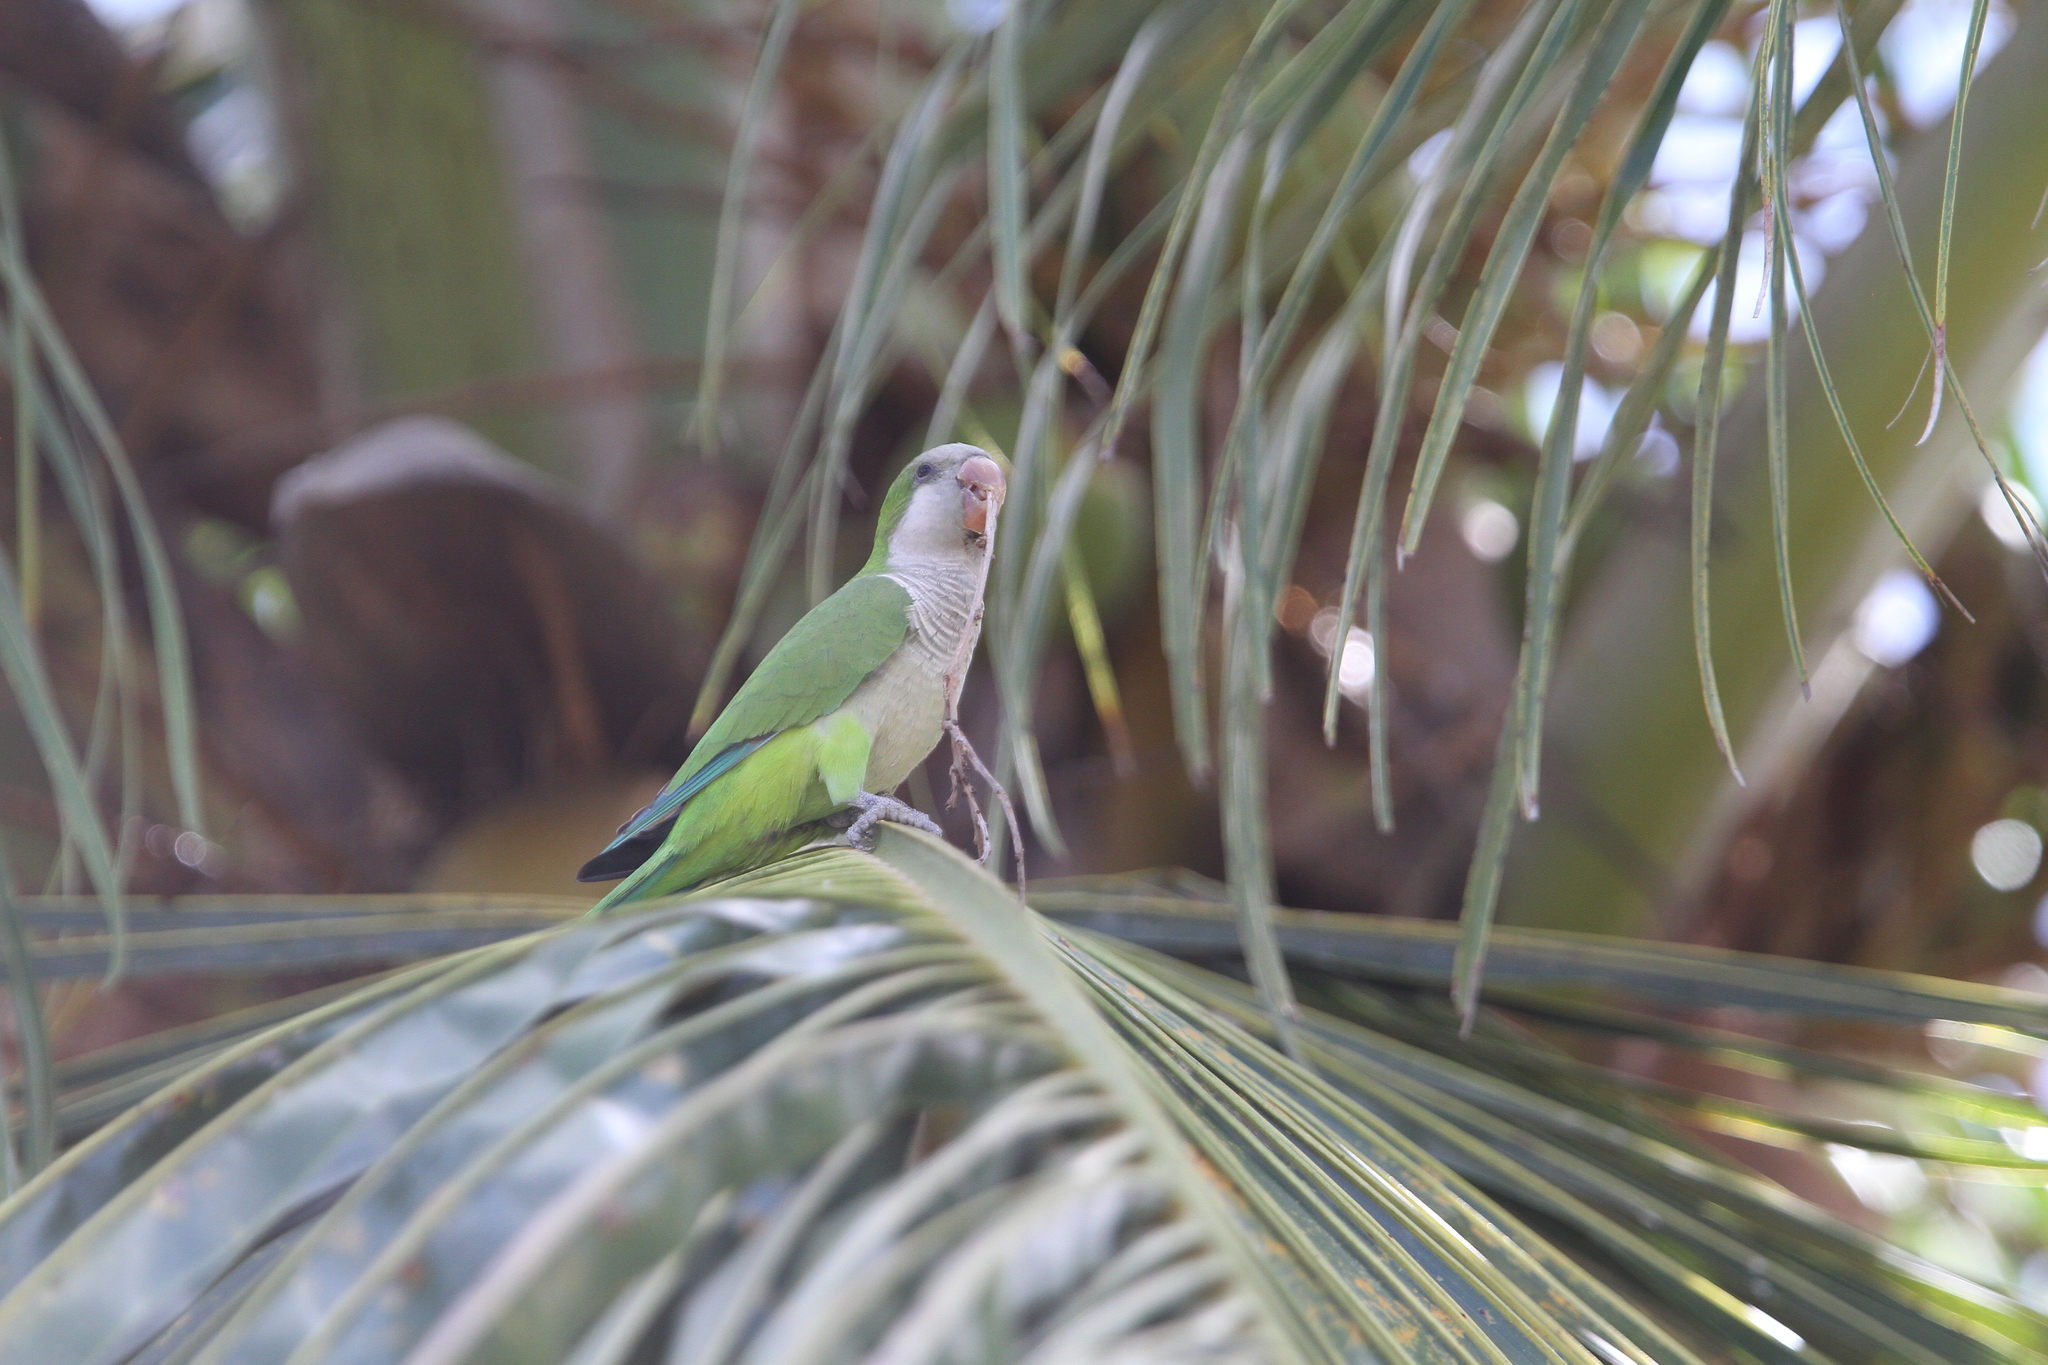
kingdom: Animalia
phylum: Chordata
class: Aves
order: Psittaciformes
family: Psittacidae
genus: Myiopsitta
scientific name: Myiopsitta monachus
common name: Monk parakeet
